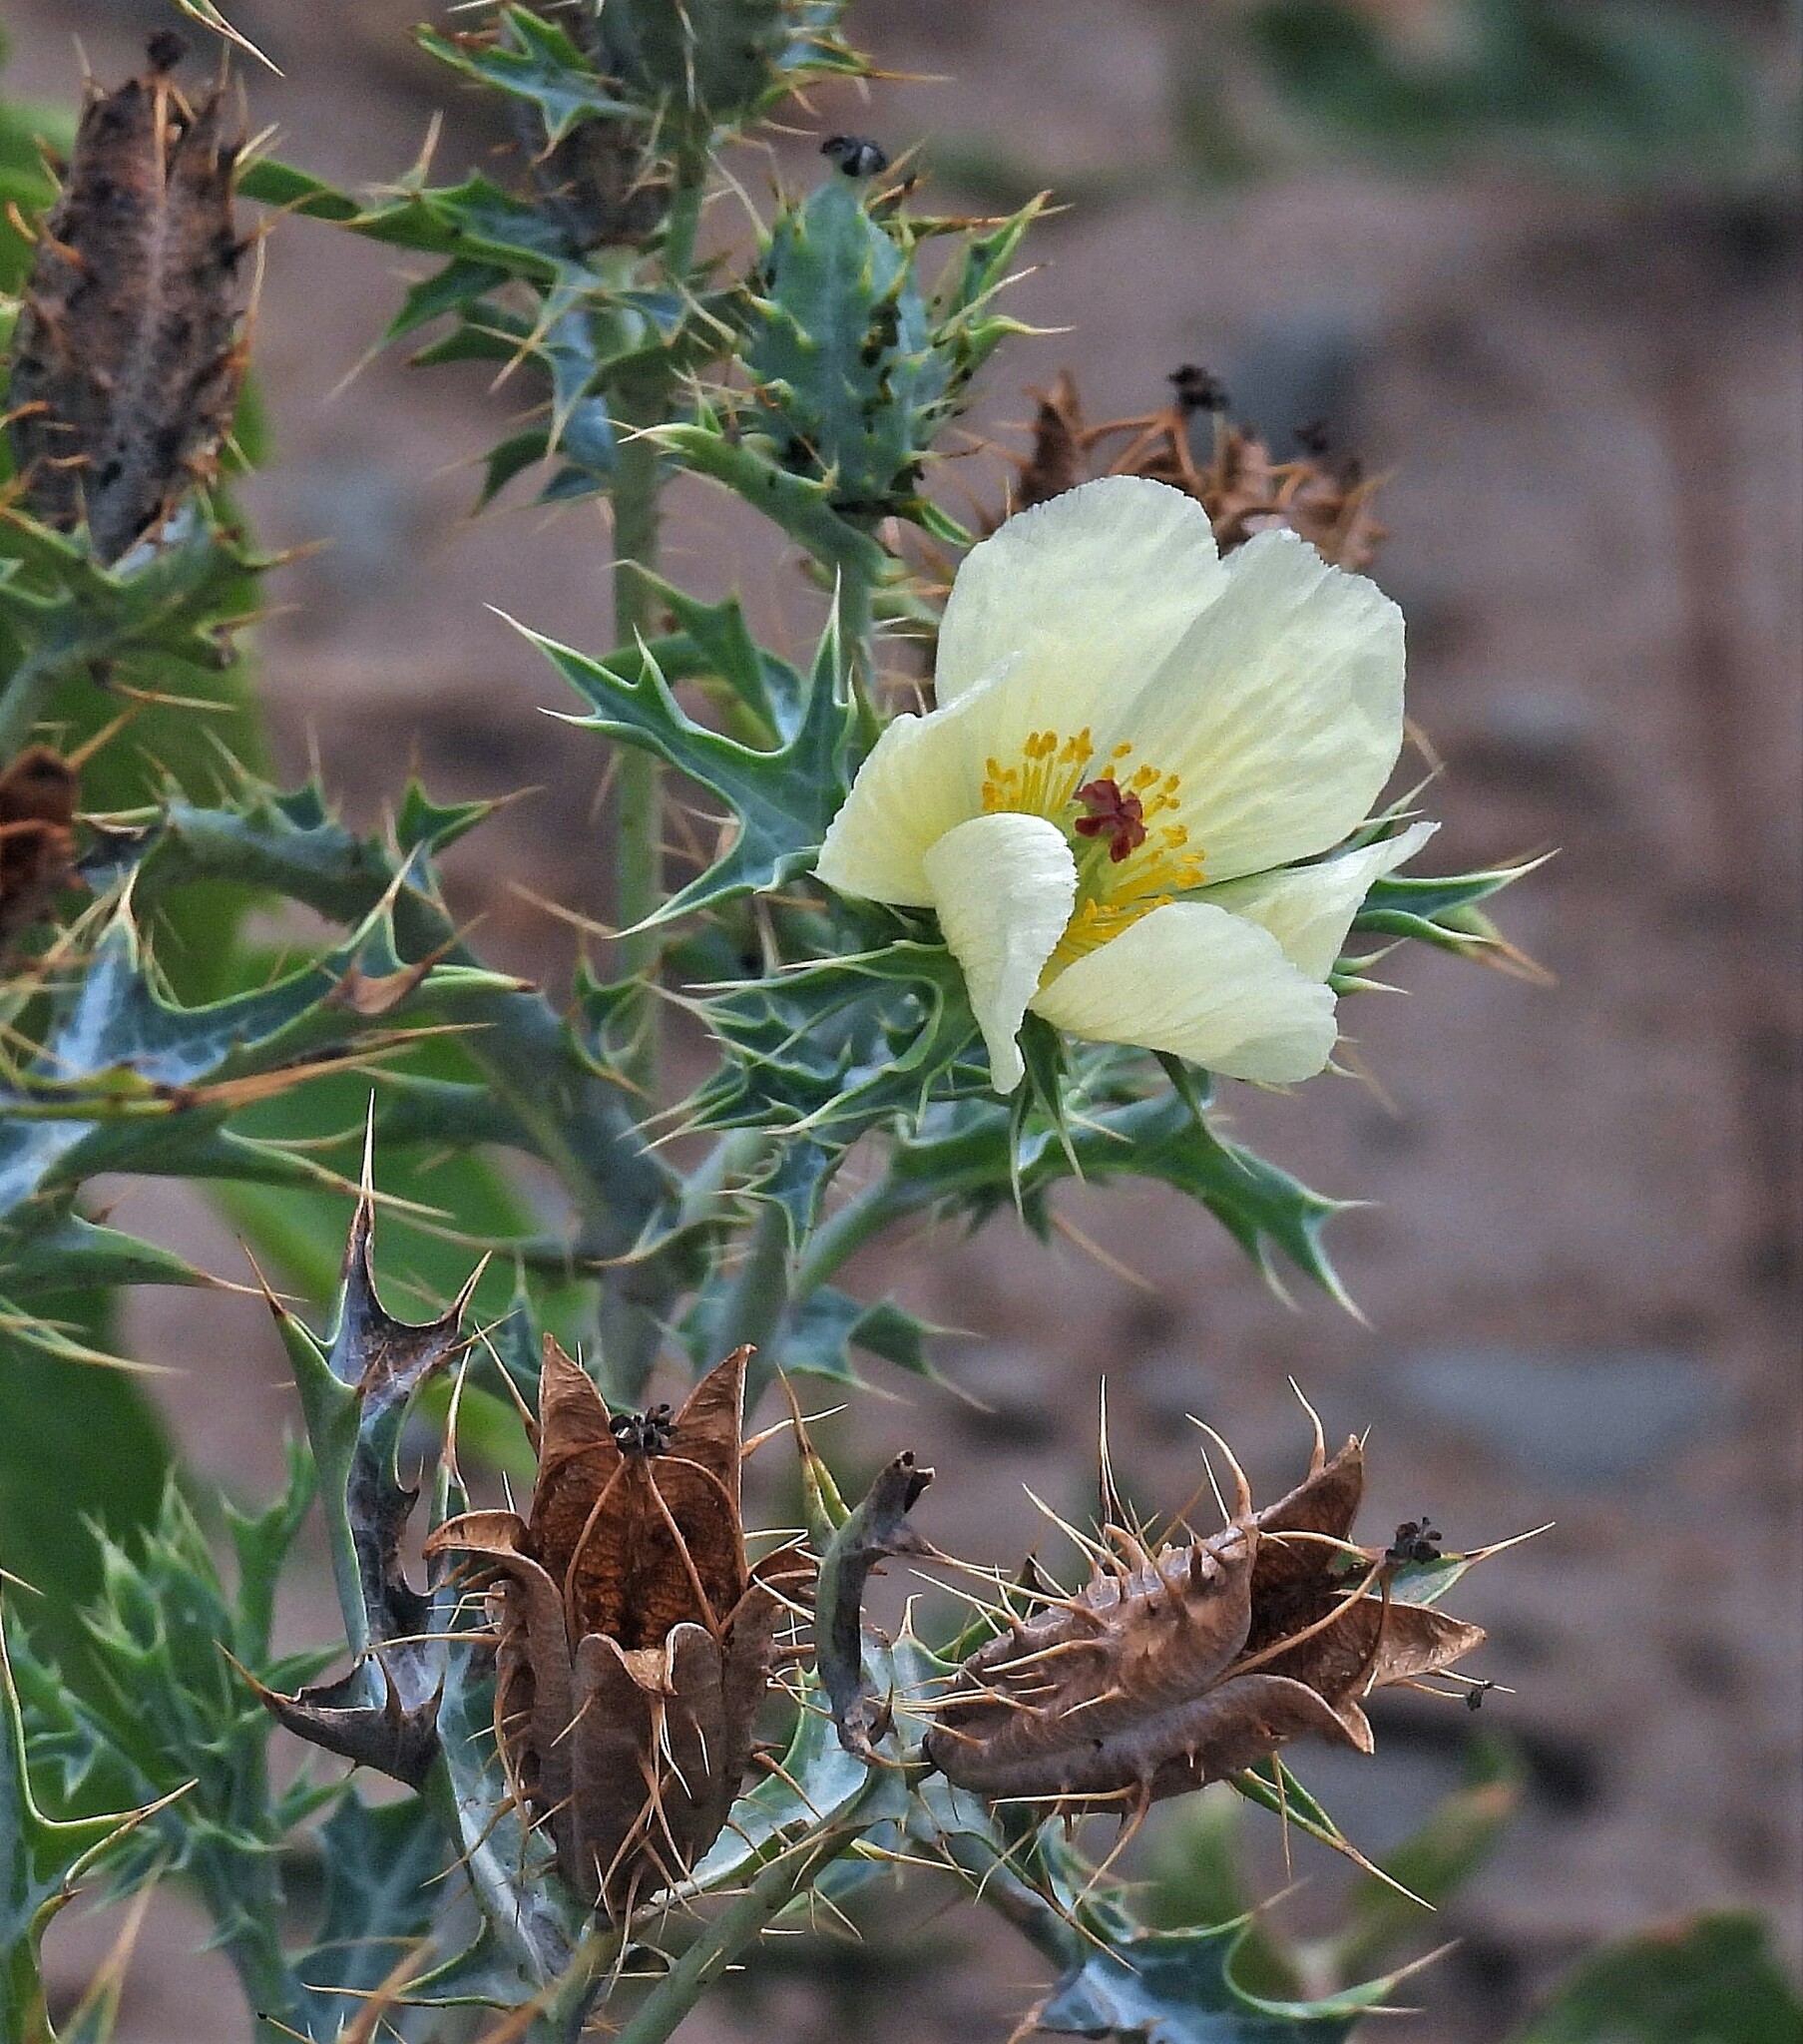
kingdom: Plantae
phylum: Tracheophyta
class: Magnoliopsida
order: Ranunculales
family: Papaveraceae
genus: Argemone
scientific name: Argemone subfusiformis
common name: American-poppy
